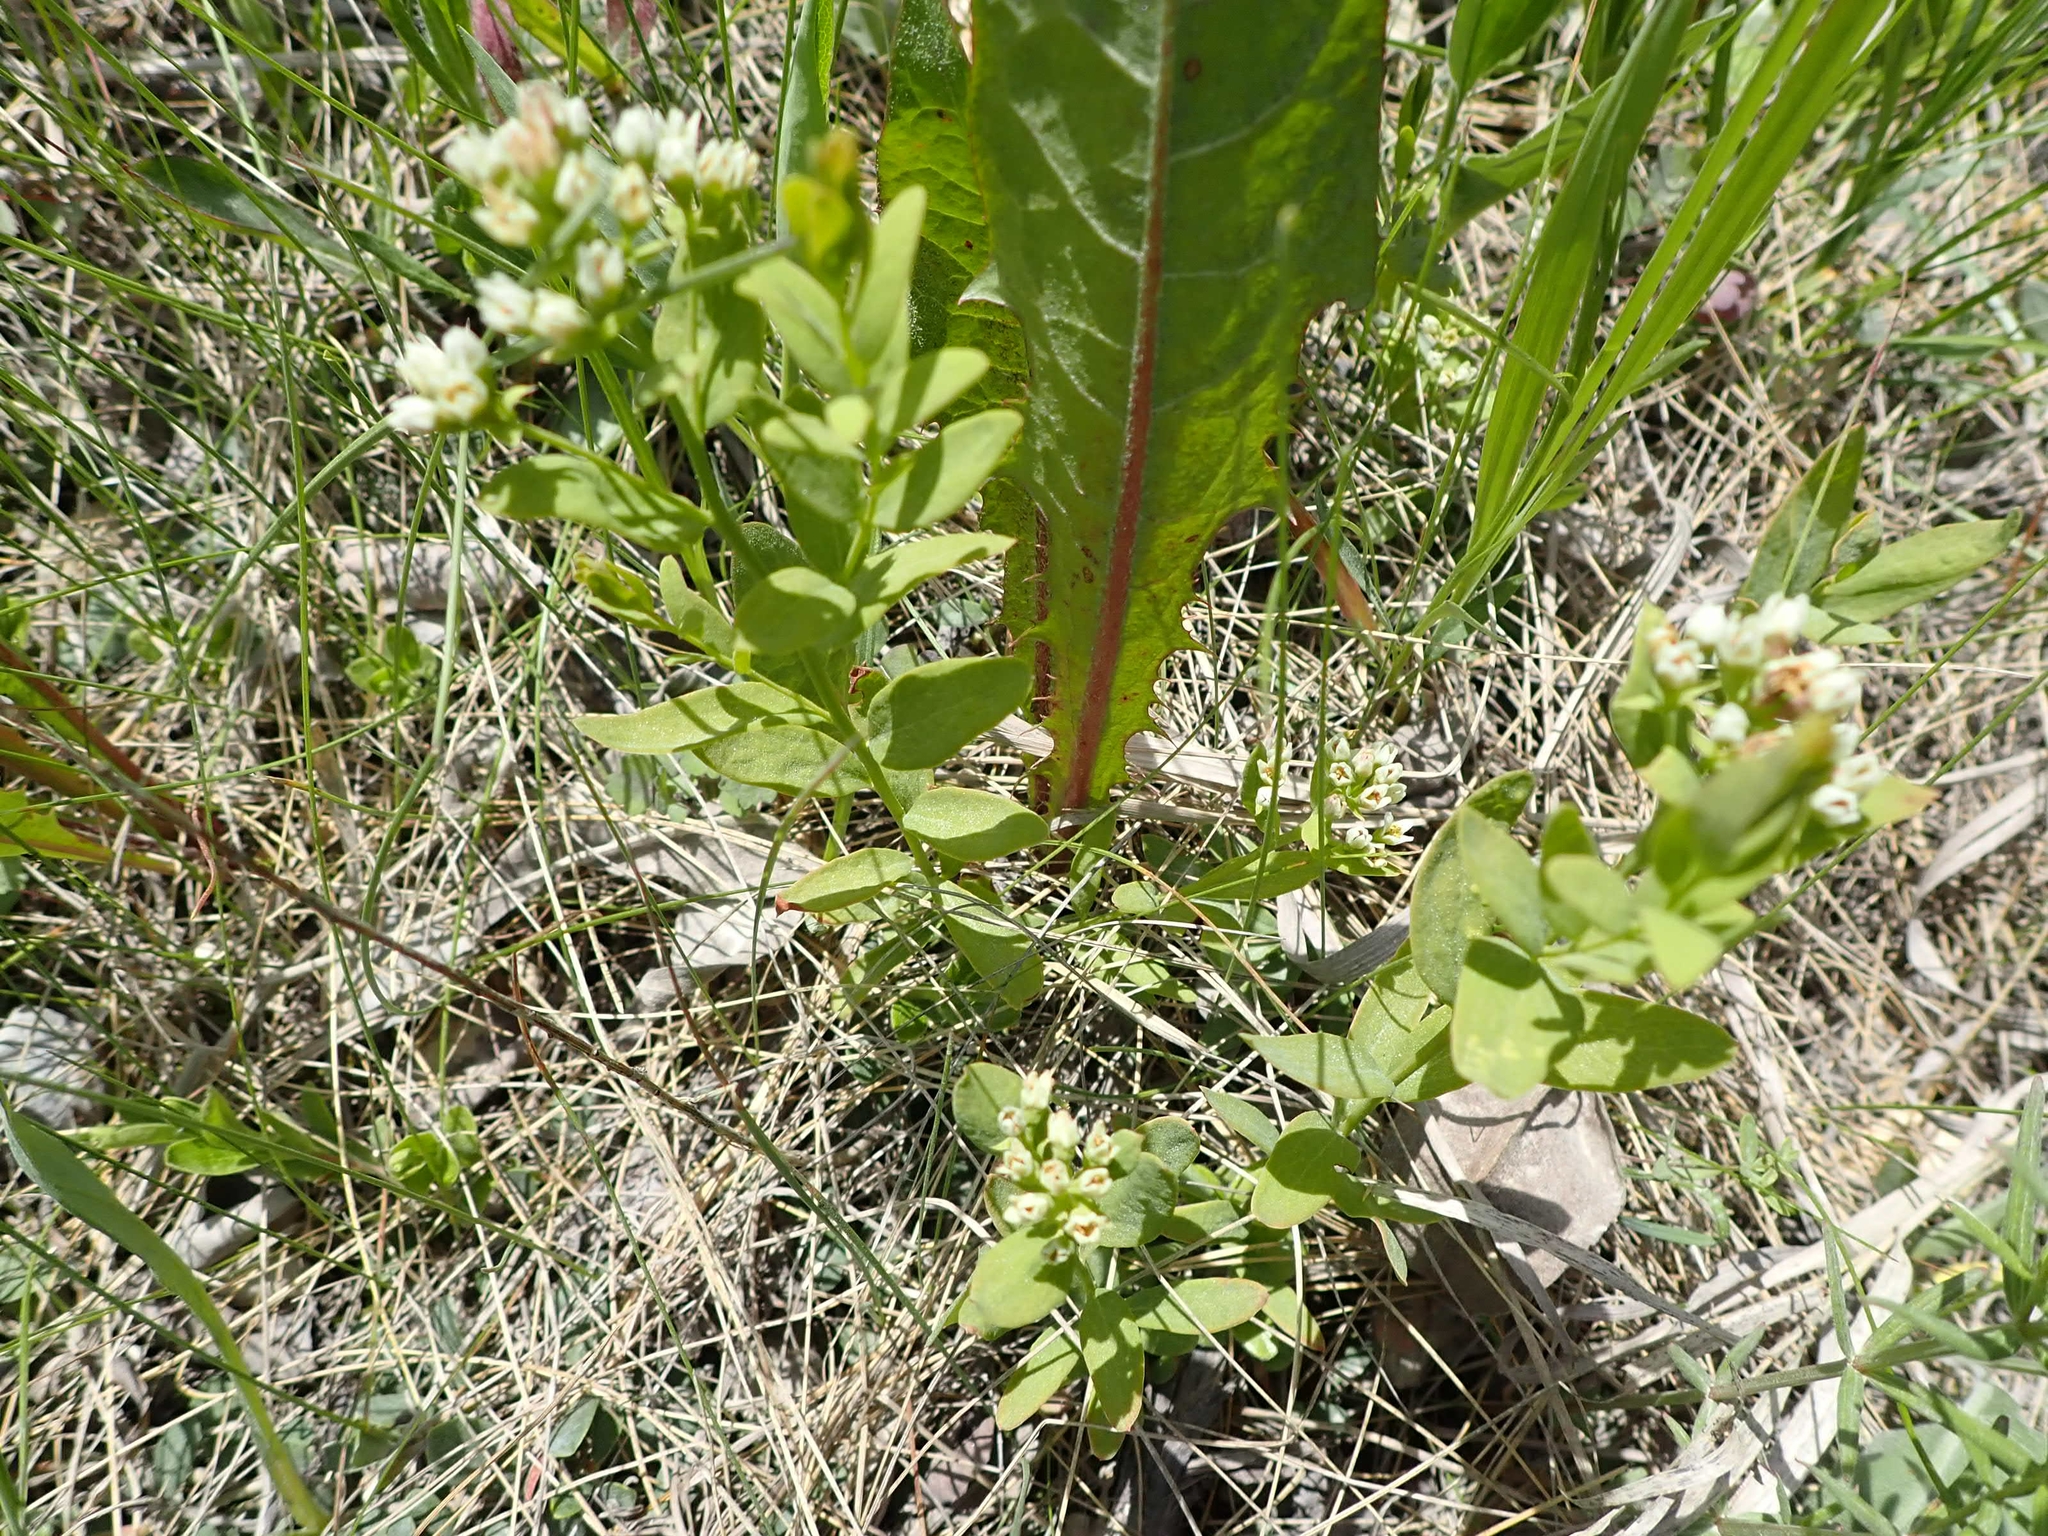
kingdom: Plantae
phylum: Tracheophyta
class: Magnoliopsida
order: Santalales
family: Comandraceae
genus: Comandra
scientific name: Comandra umbellata
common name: Bastard toadflax
